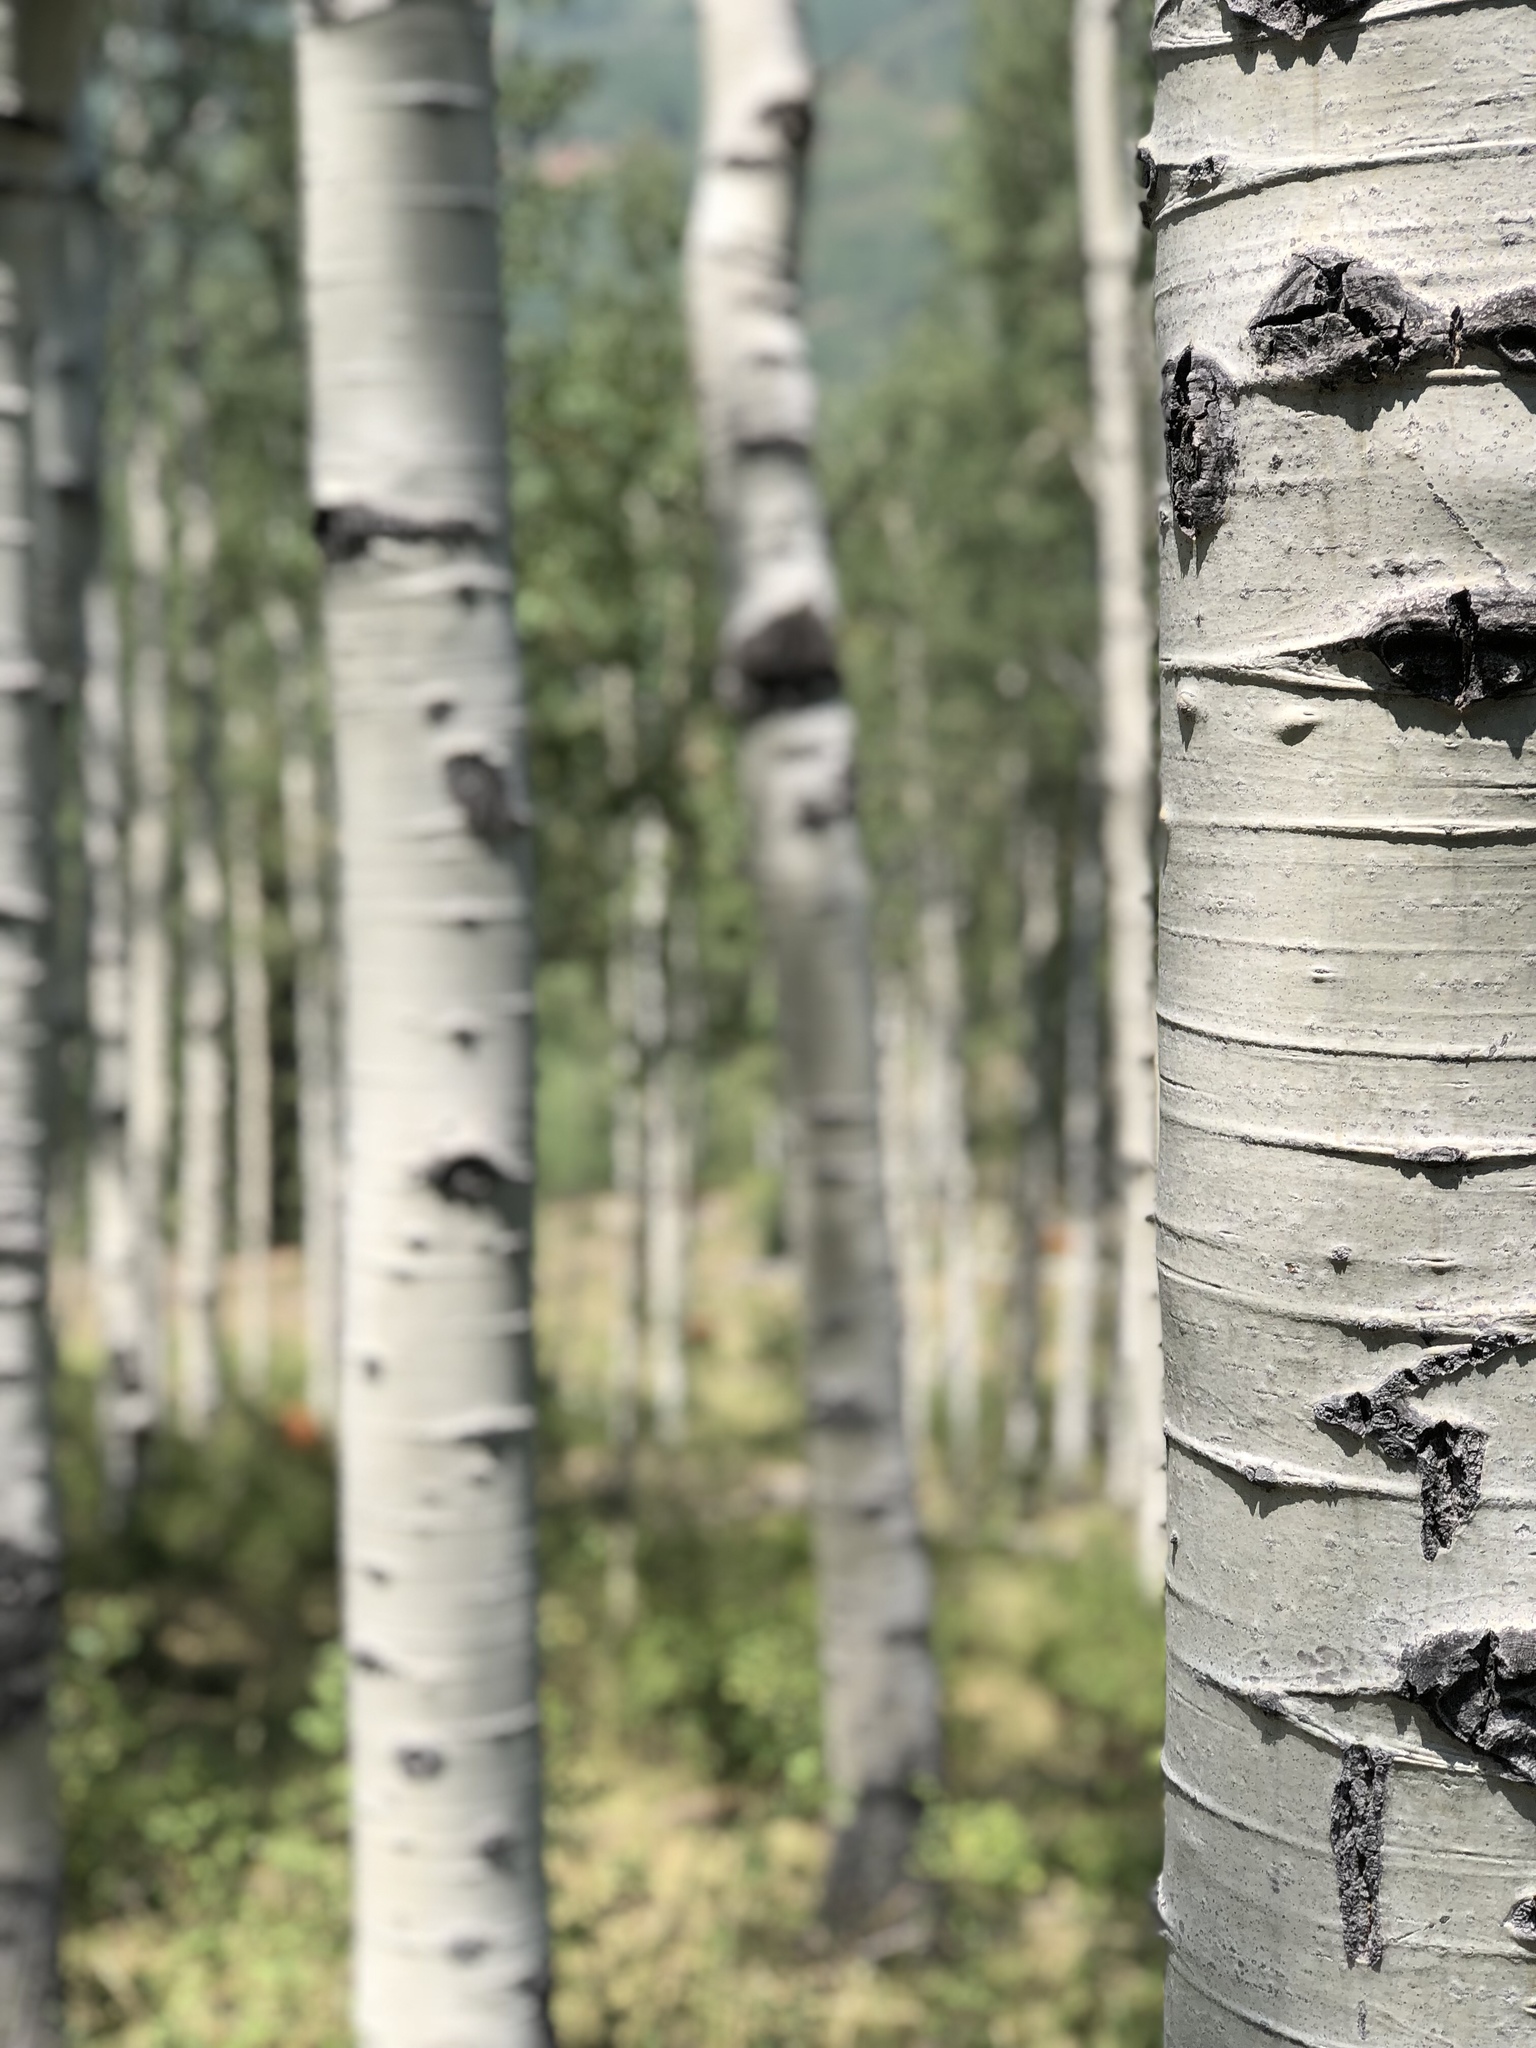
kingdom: Plantae
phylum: Tracheophyta
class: Magnoliopsida
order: Malpighiales
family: Salicaceae
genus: Populus
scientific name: Populus tremuloides
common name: Quaking aspen
